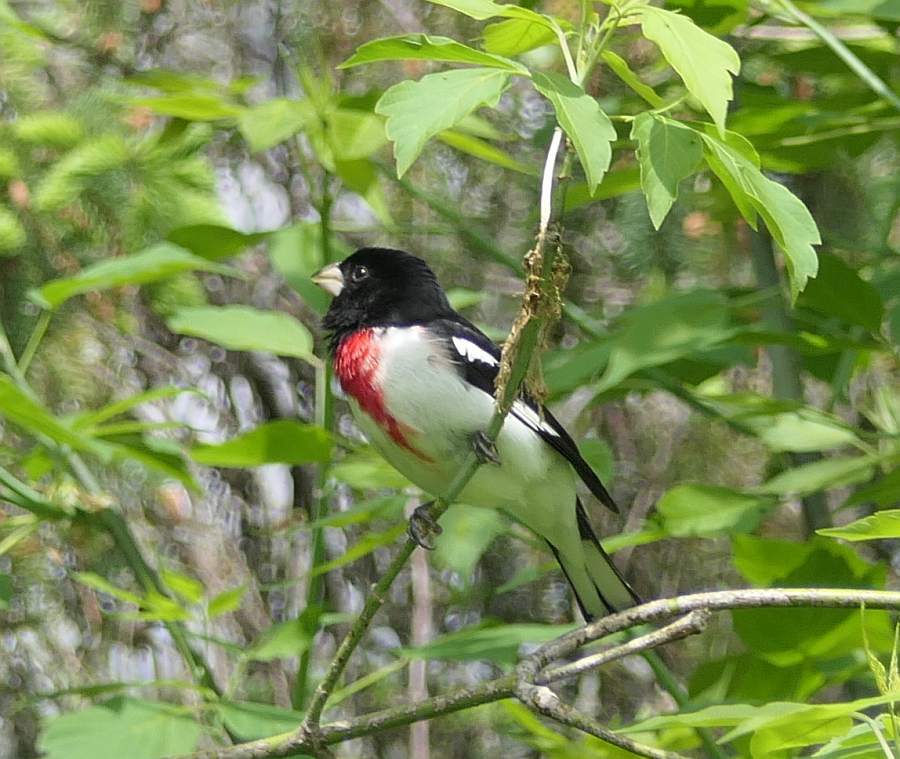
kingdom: Animalia
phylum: Chordata
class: Aves
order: Passeriformes
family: Cardinalidae
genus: Pheucticus
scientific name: Pheucticus ludovicianus
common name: Rose-breasted grosbeak
